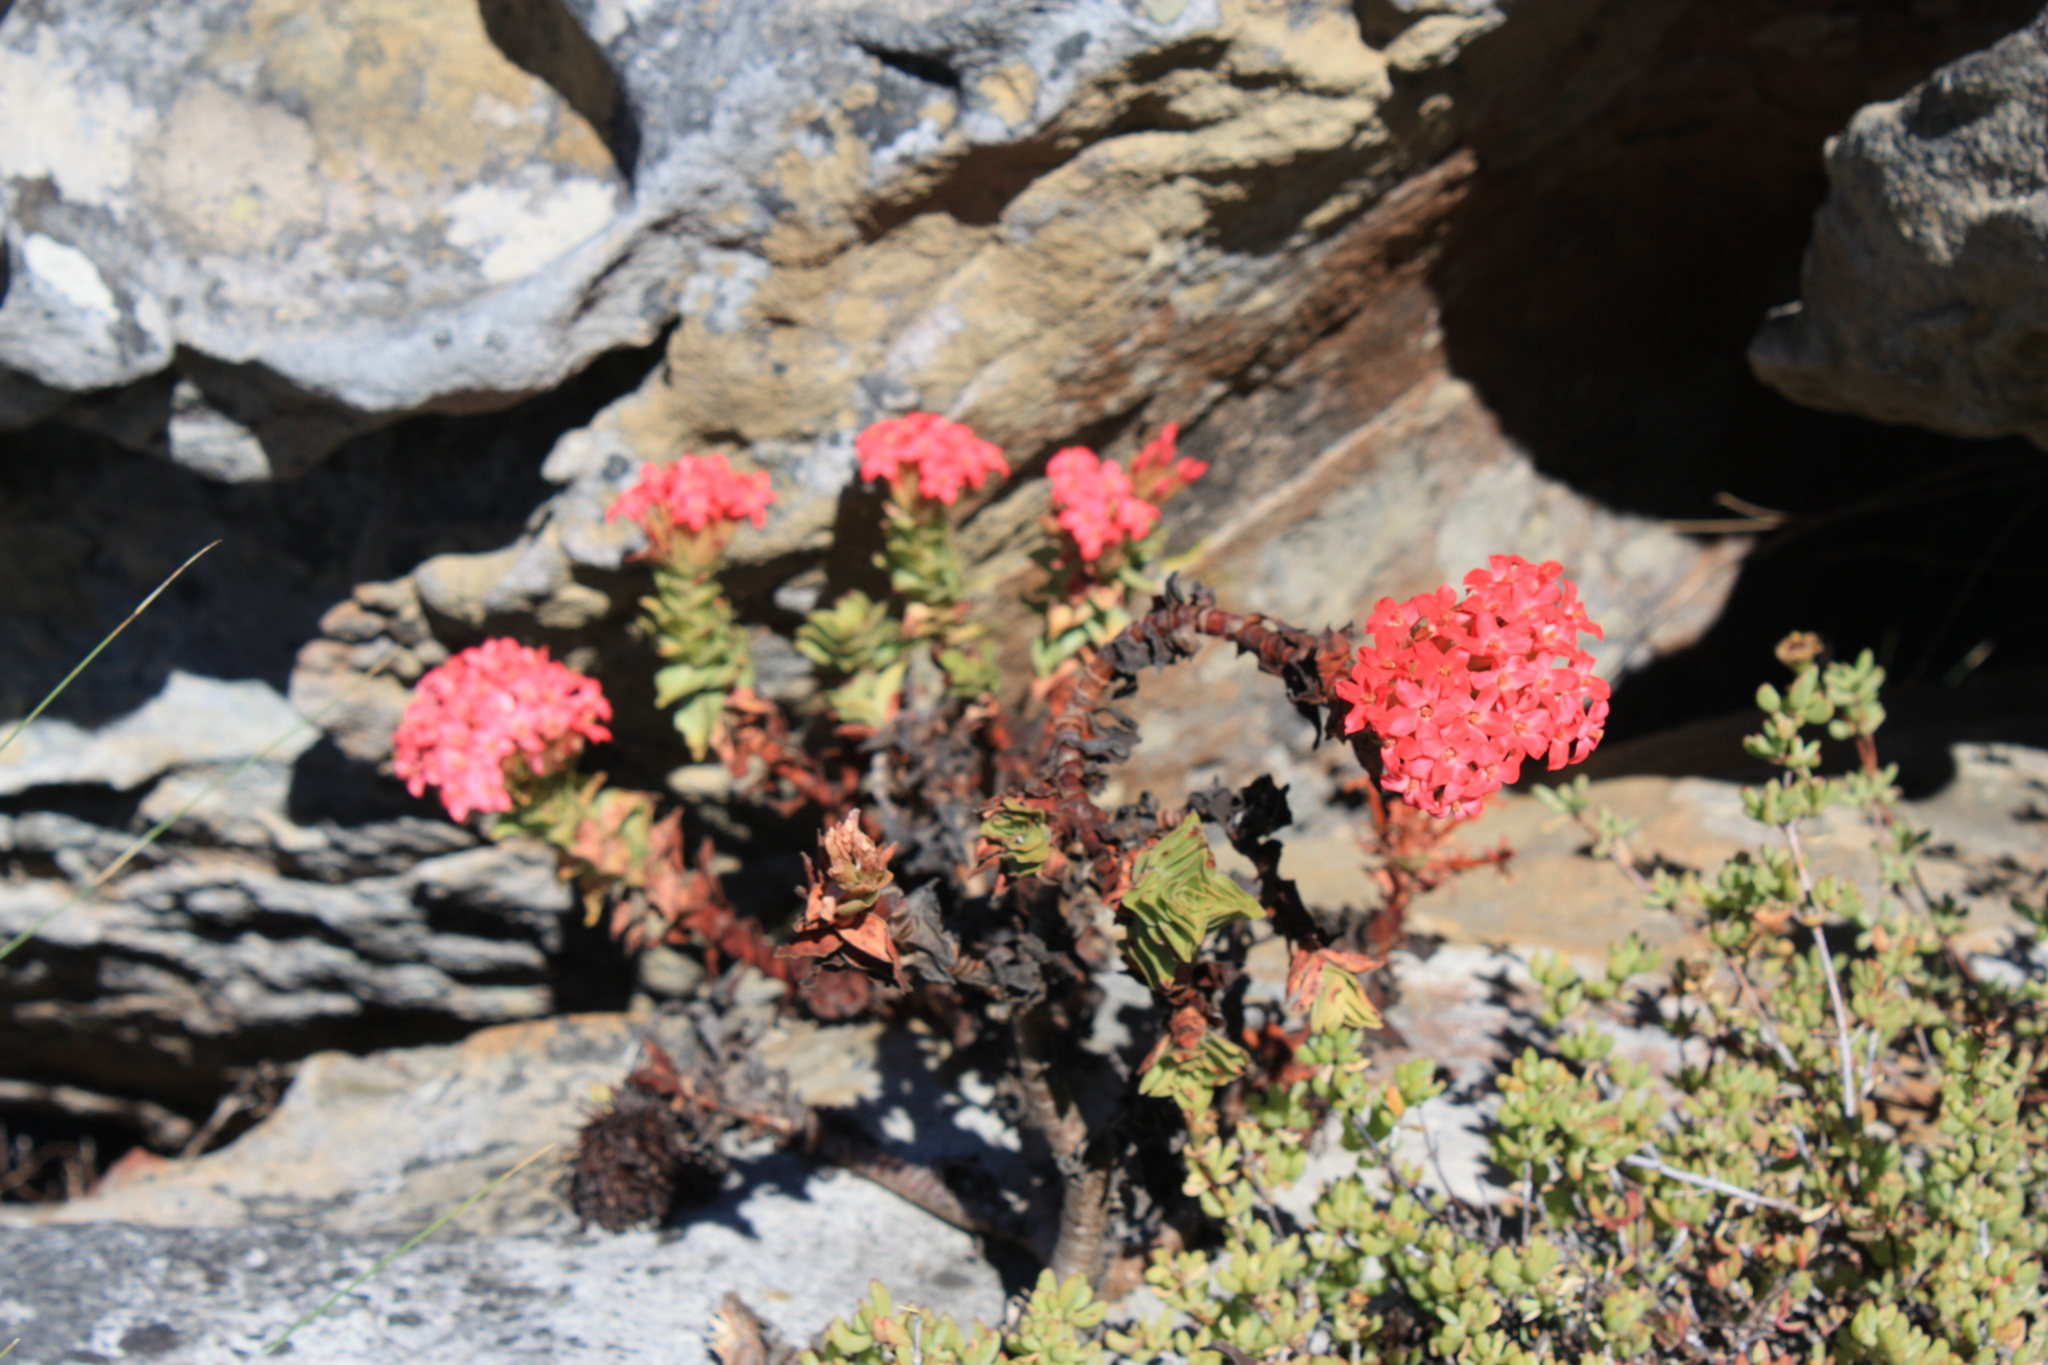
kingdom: Plantae
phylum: Tracheophyta
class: Magnoliopsida
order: Saxifragales
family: Crassulaceae
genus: Crassula
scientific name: Crassula coccinea
